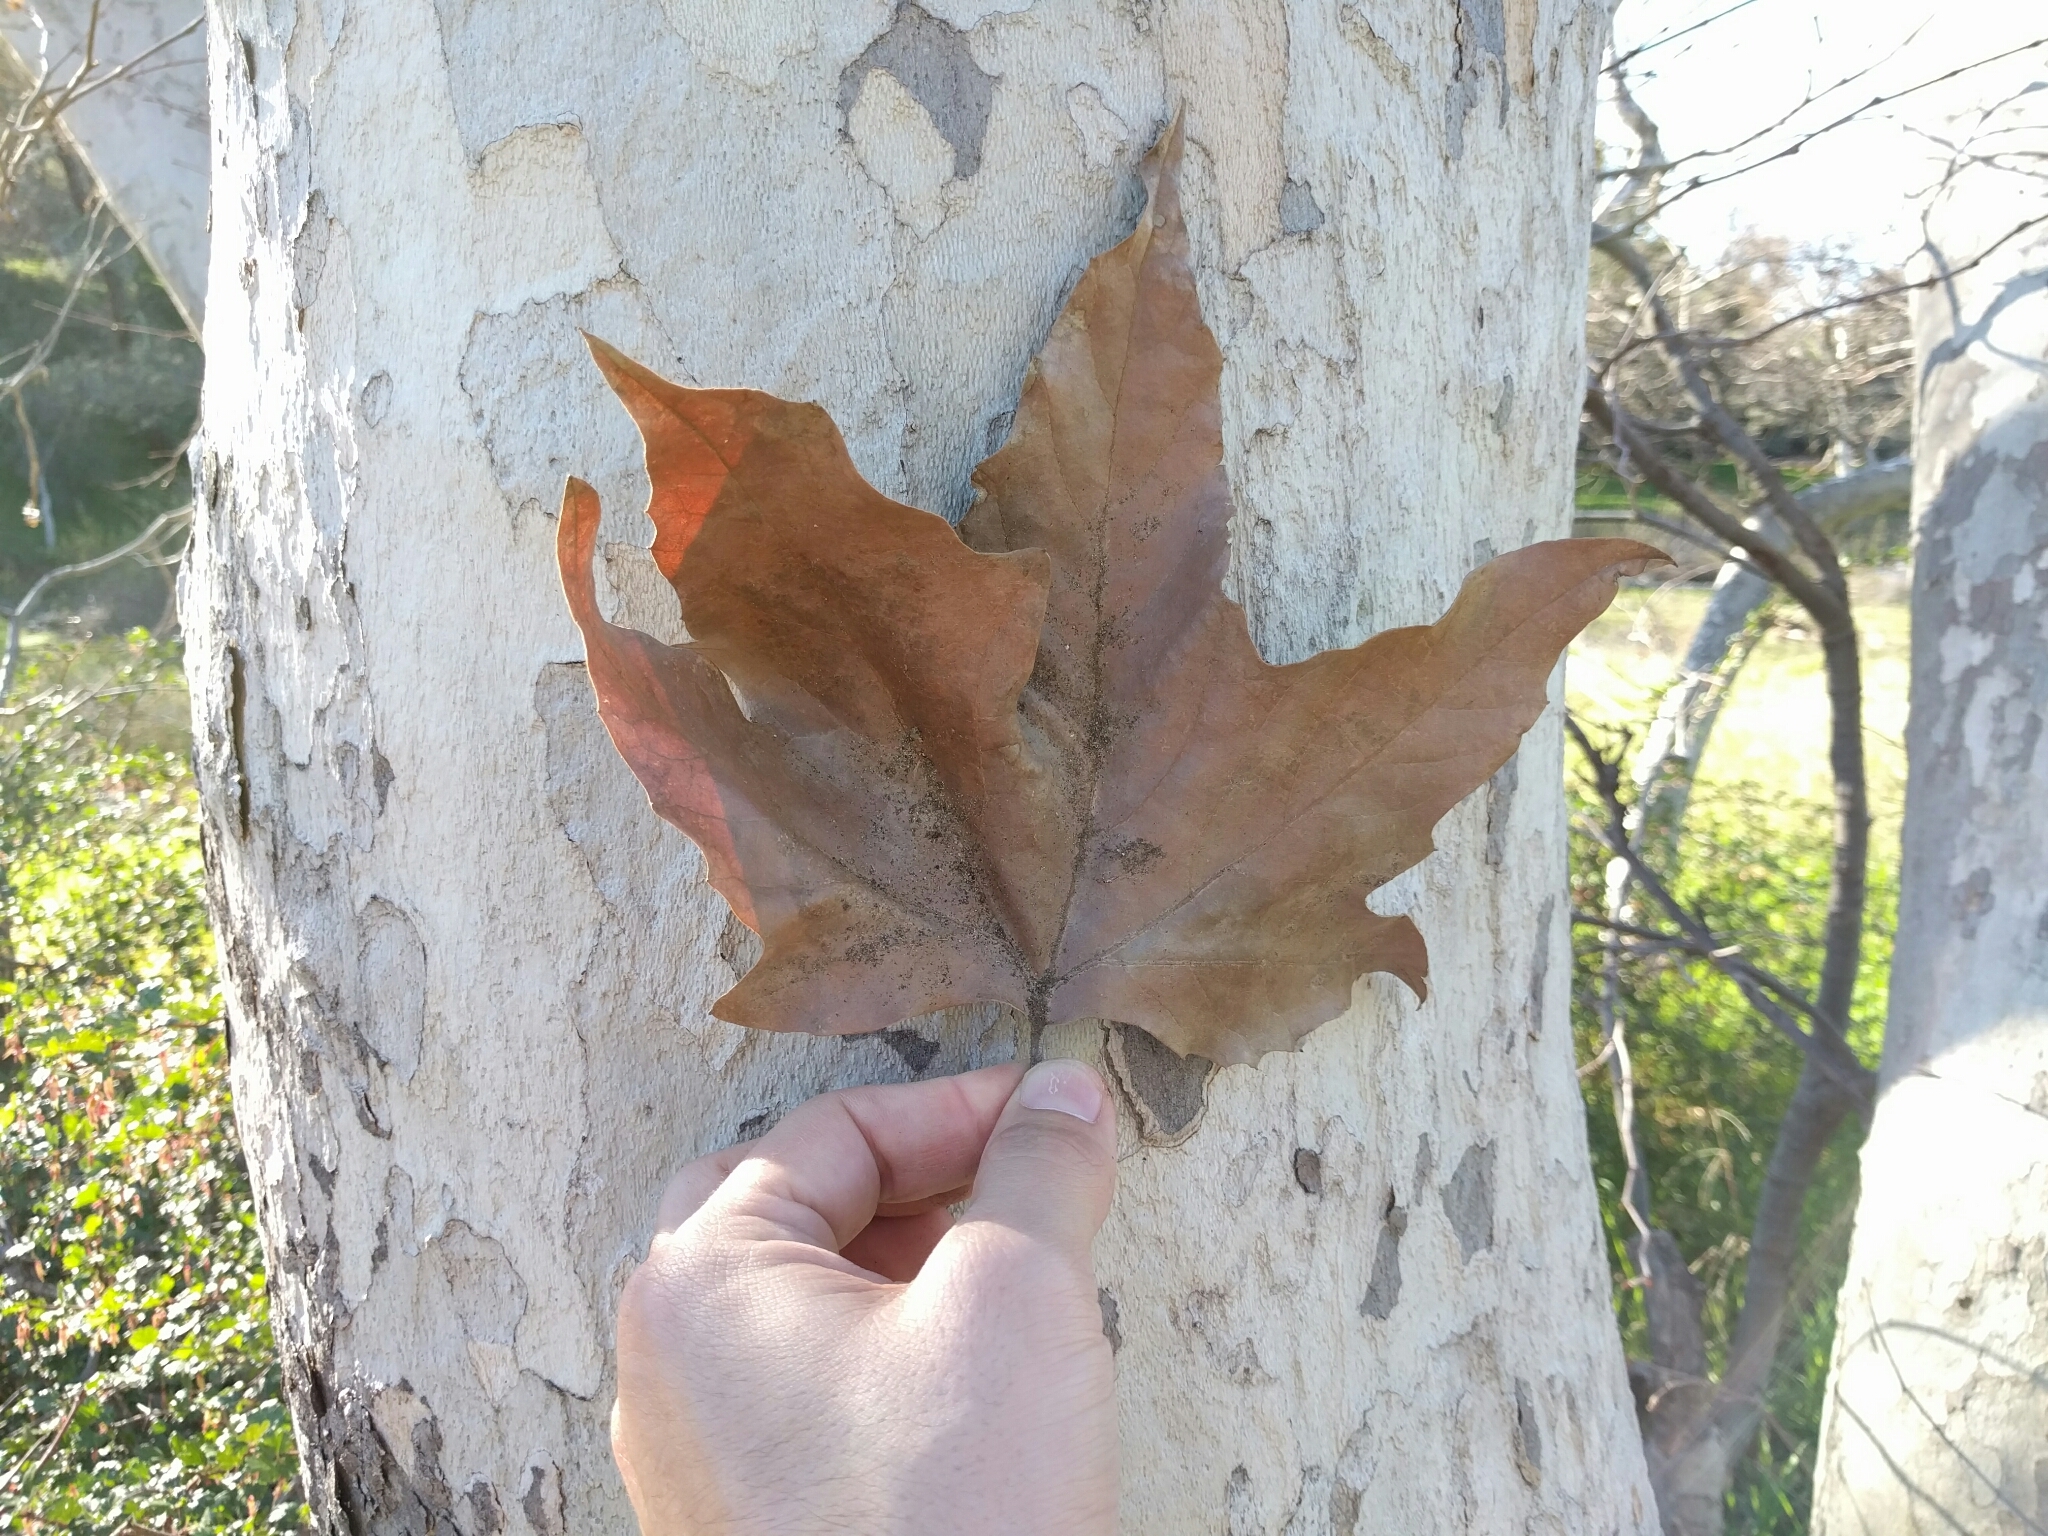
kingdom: Plantae
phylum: Tracheophyta
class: Magnoliopsida
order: Proteales
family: Platanaceae
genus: Platanus
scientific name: Platanus racemosa
